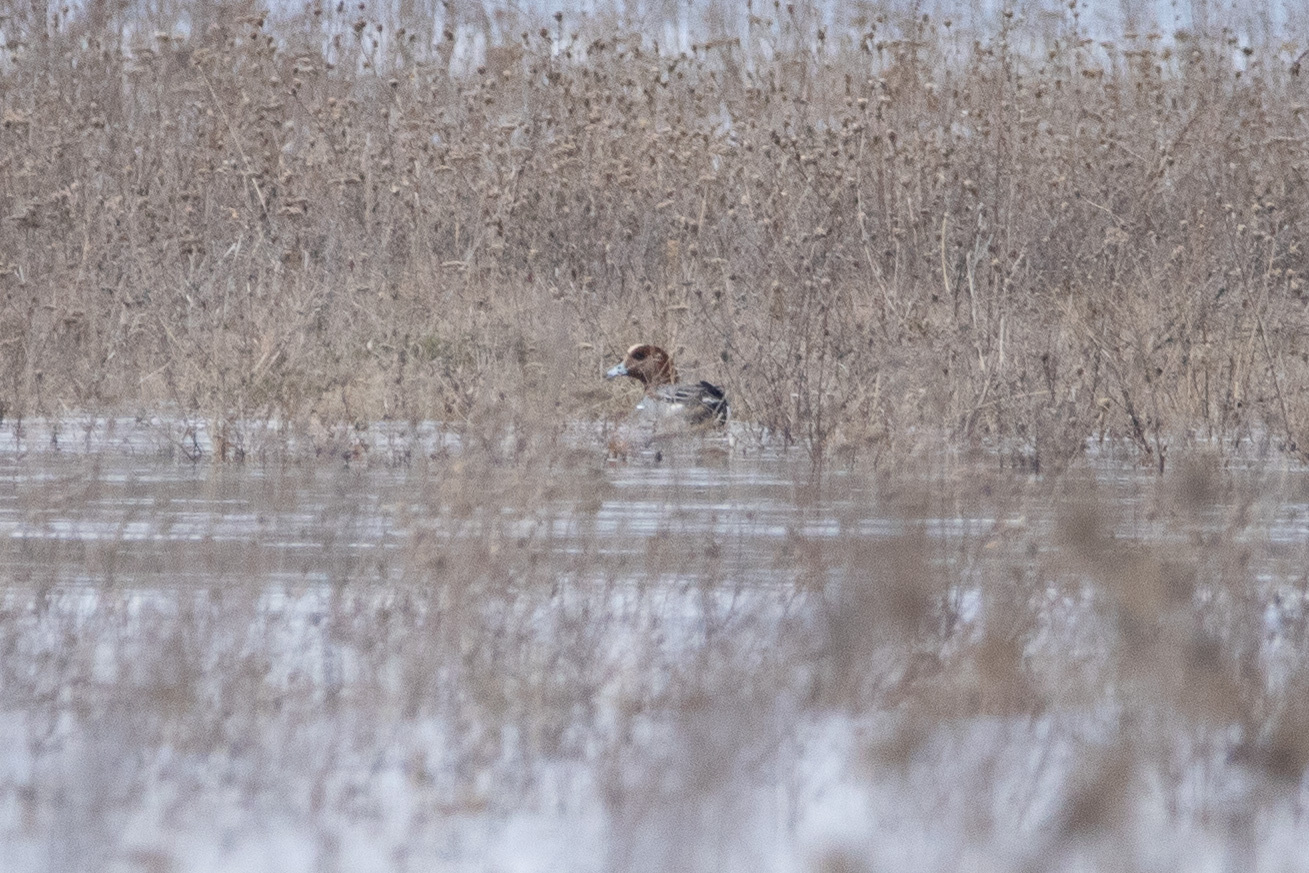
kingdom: Animalia
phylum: Chordata
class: Aves
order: Anseriformes
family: Anatidae
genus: Mareca
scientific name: Mareca penelope
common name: Eurasian wigeon
